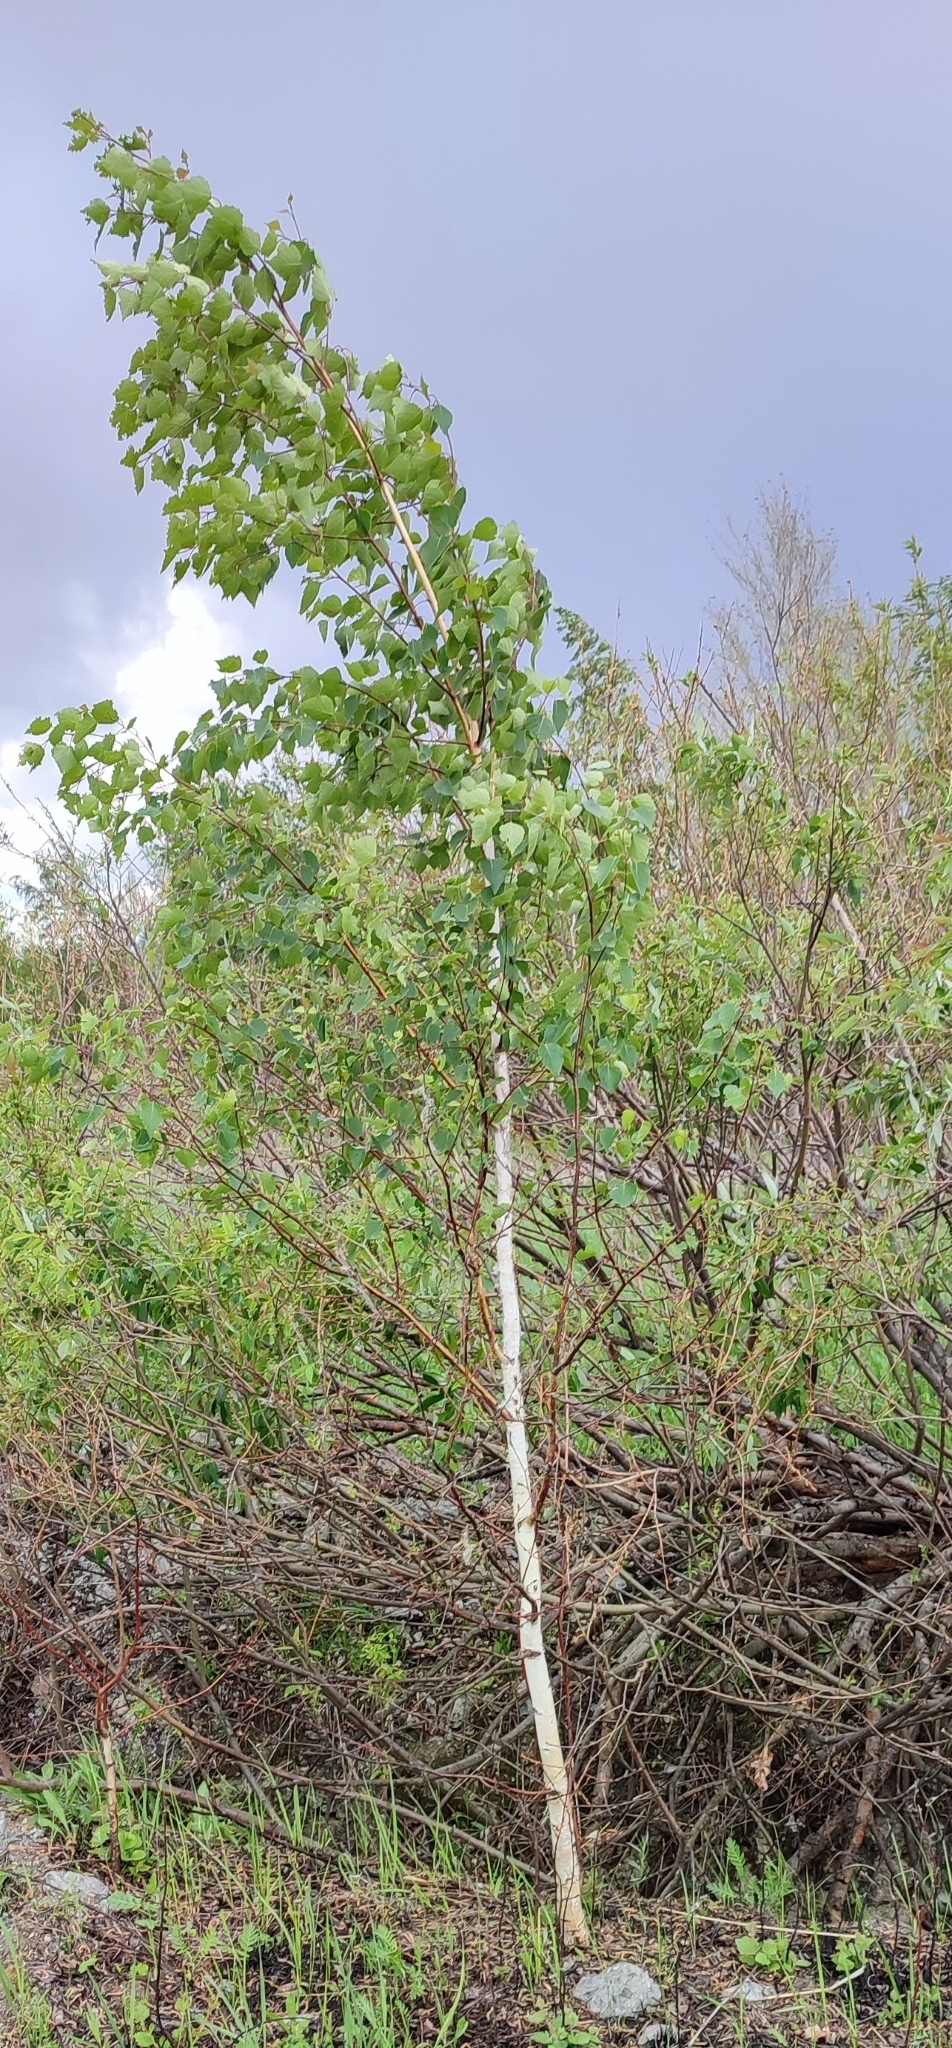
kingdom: Plantae
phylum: Tracheophyta
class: Magnoliopsida
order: Fagales
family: Betulaceae
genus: Betula
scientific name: Betula pendula
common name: Silver birch
